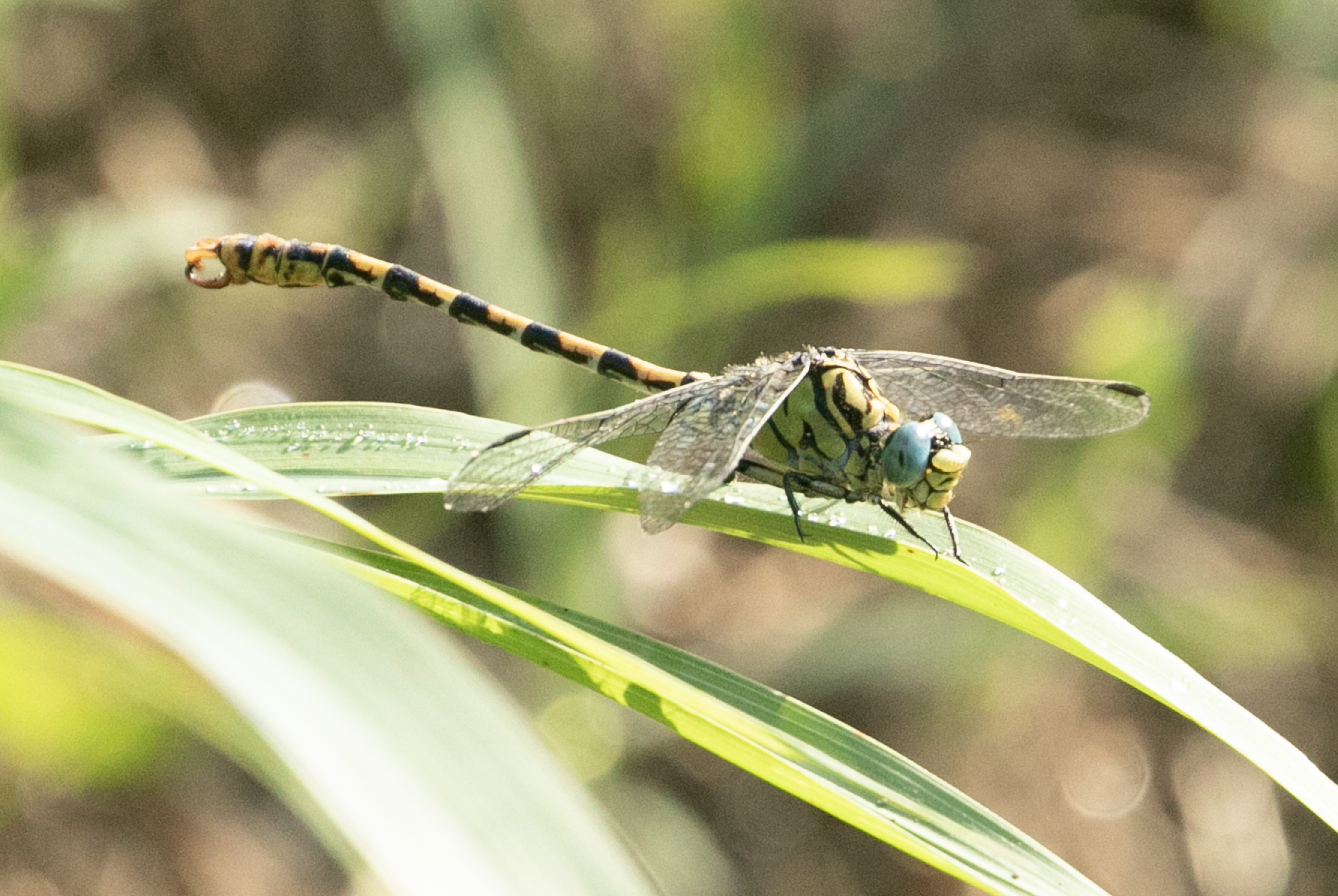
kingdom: Animalia
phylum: Arthropoda
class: Insecta
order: Odonata
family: Gomphidae
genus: Onychogomphus
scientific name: Onychogomphus forcipatus
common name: Small pincertail
